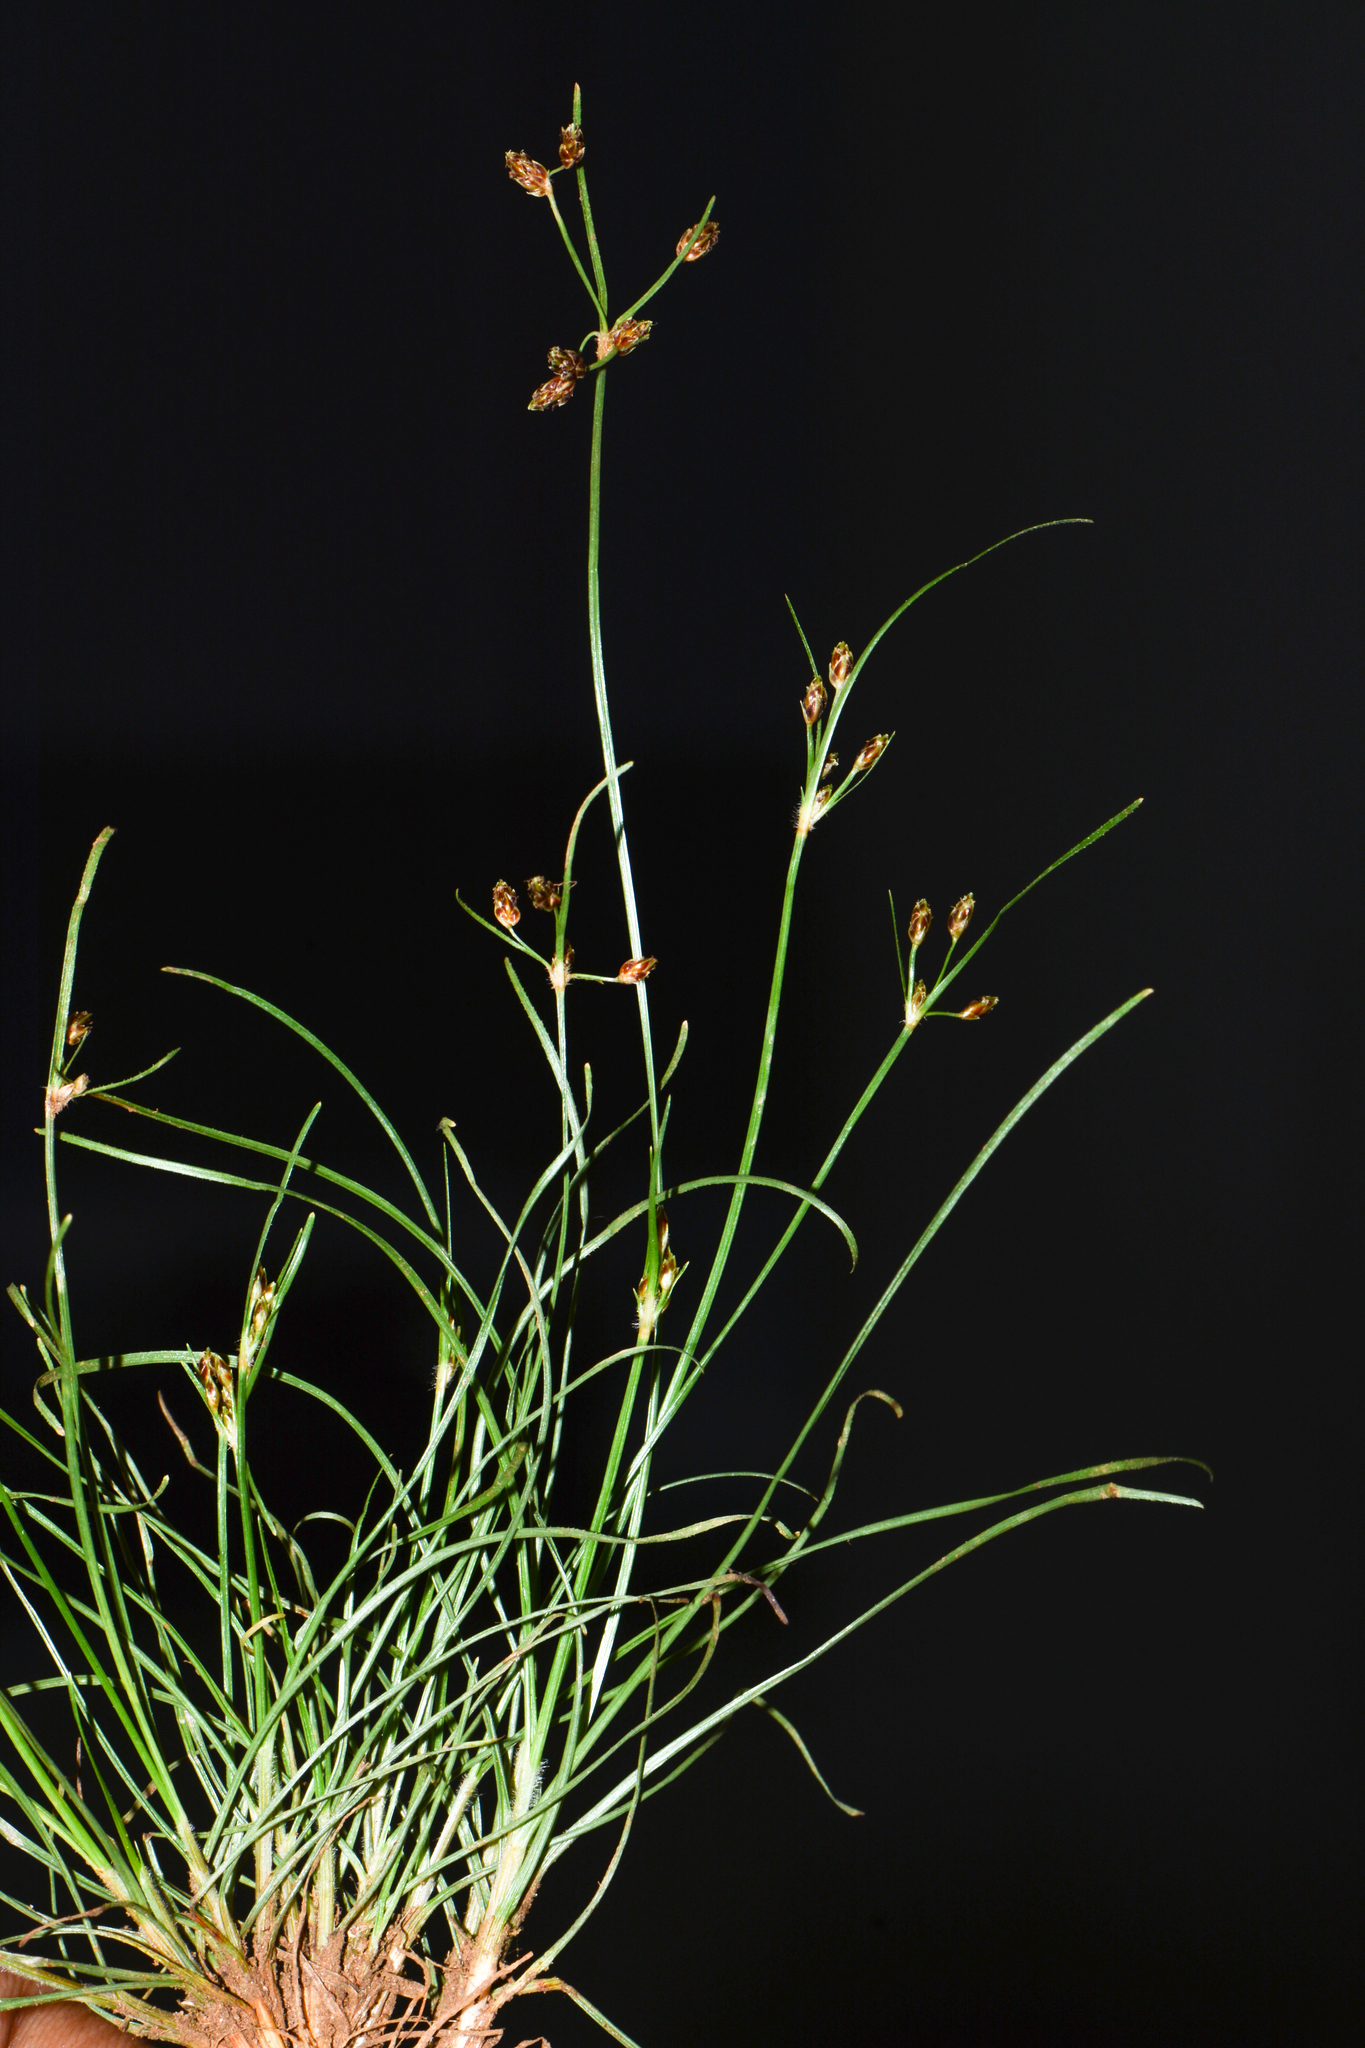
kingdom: Plantae
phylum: Tracheophyta
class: Liliopsida
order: Poales
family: Cyperaceae
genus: Fimbristylis
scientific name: Fimbristylis dichotoma
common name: Forked fimbry
